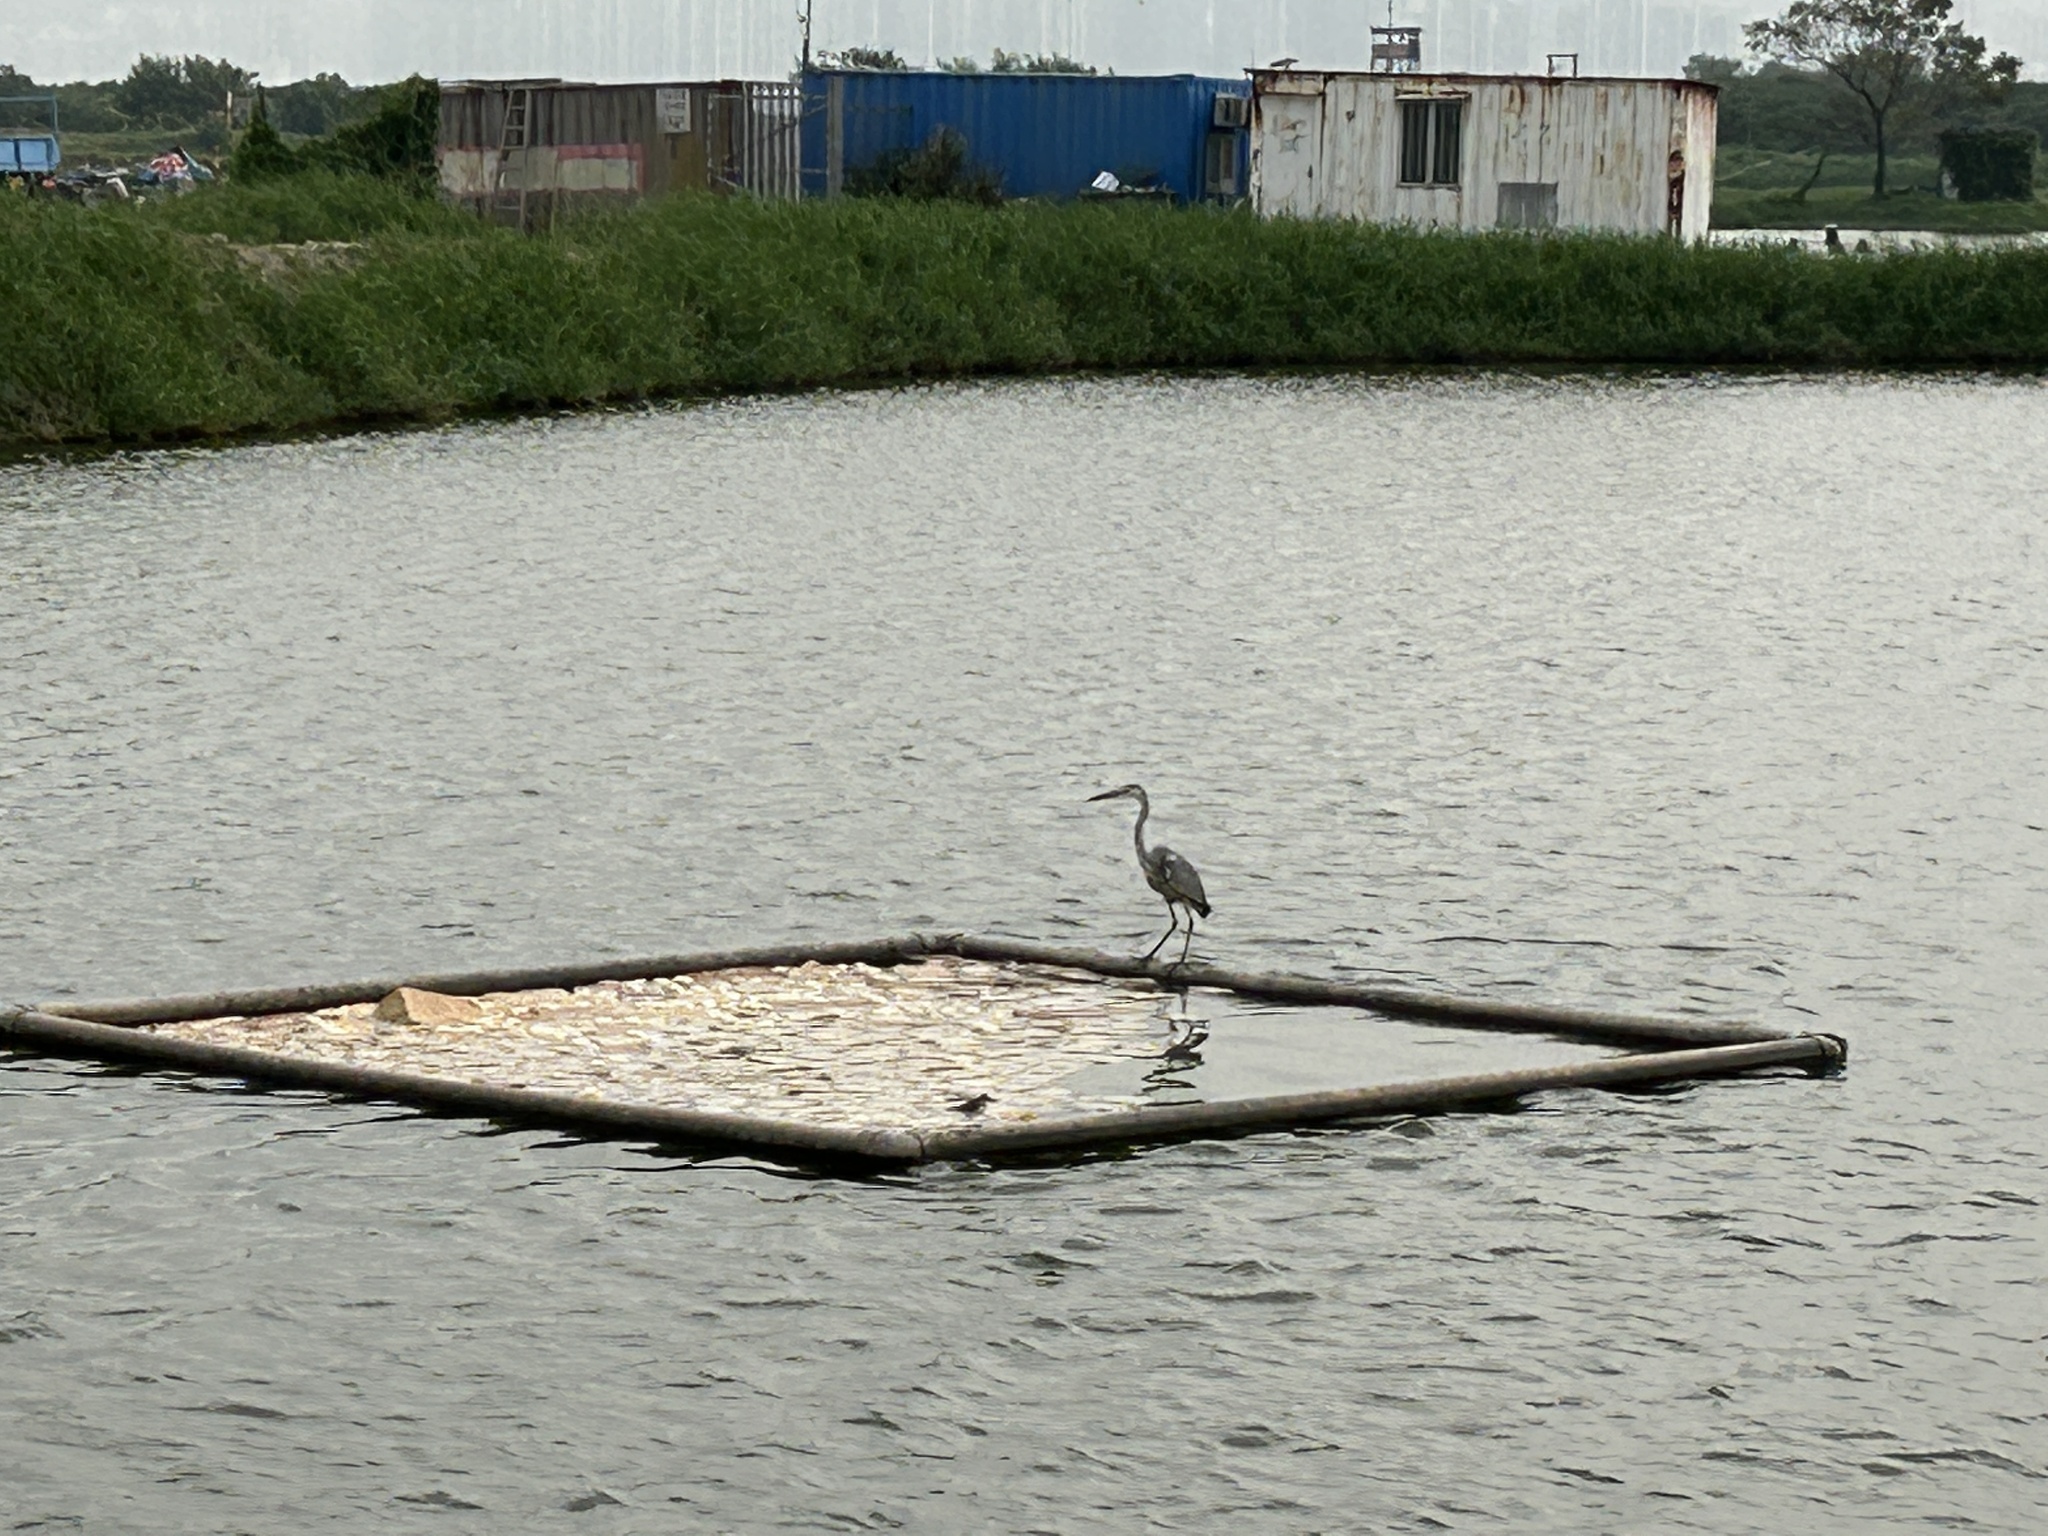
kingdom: Animalia
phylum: Chordata
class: Aves
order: Pelecaniformes
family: Ardeidae
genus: Ardea
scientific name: Ardea cinerea
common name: Grey heron
